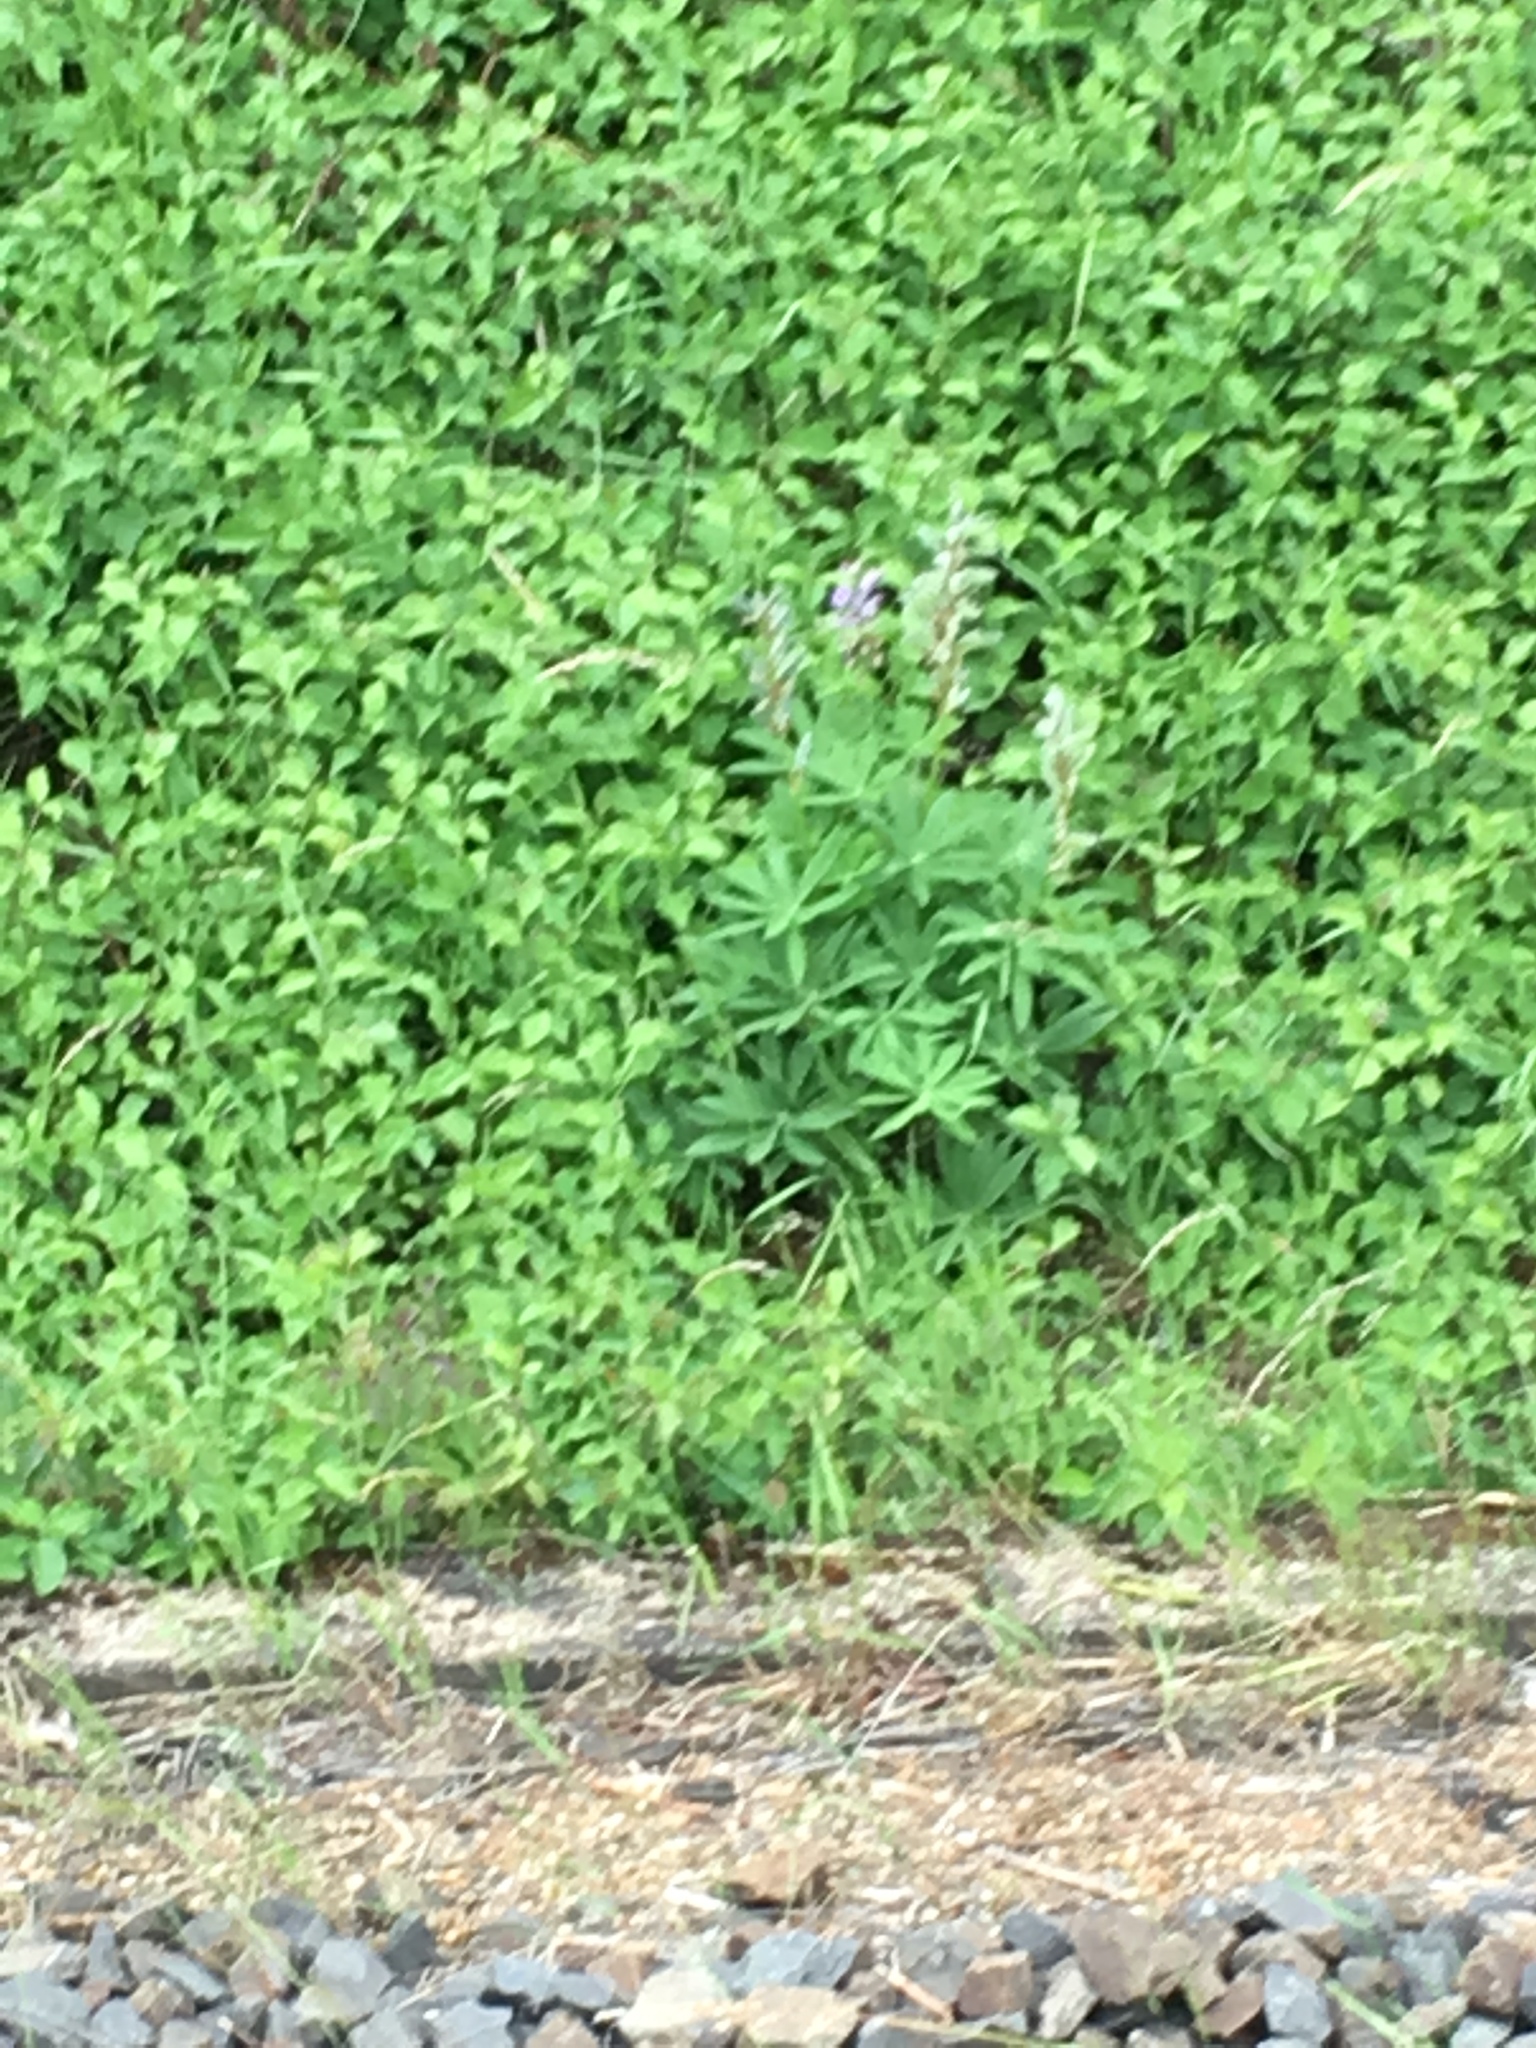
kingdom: Plantae
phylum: Tracheophyta
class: Magnoliopsida
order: Fabales
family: Fabaceae
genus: Lupinus
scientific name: Lupinus polyphyllus
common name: Garden lupin
